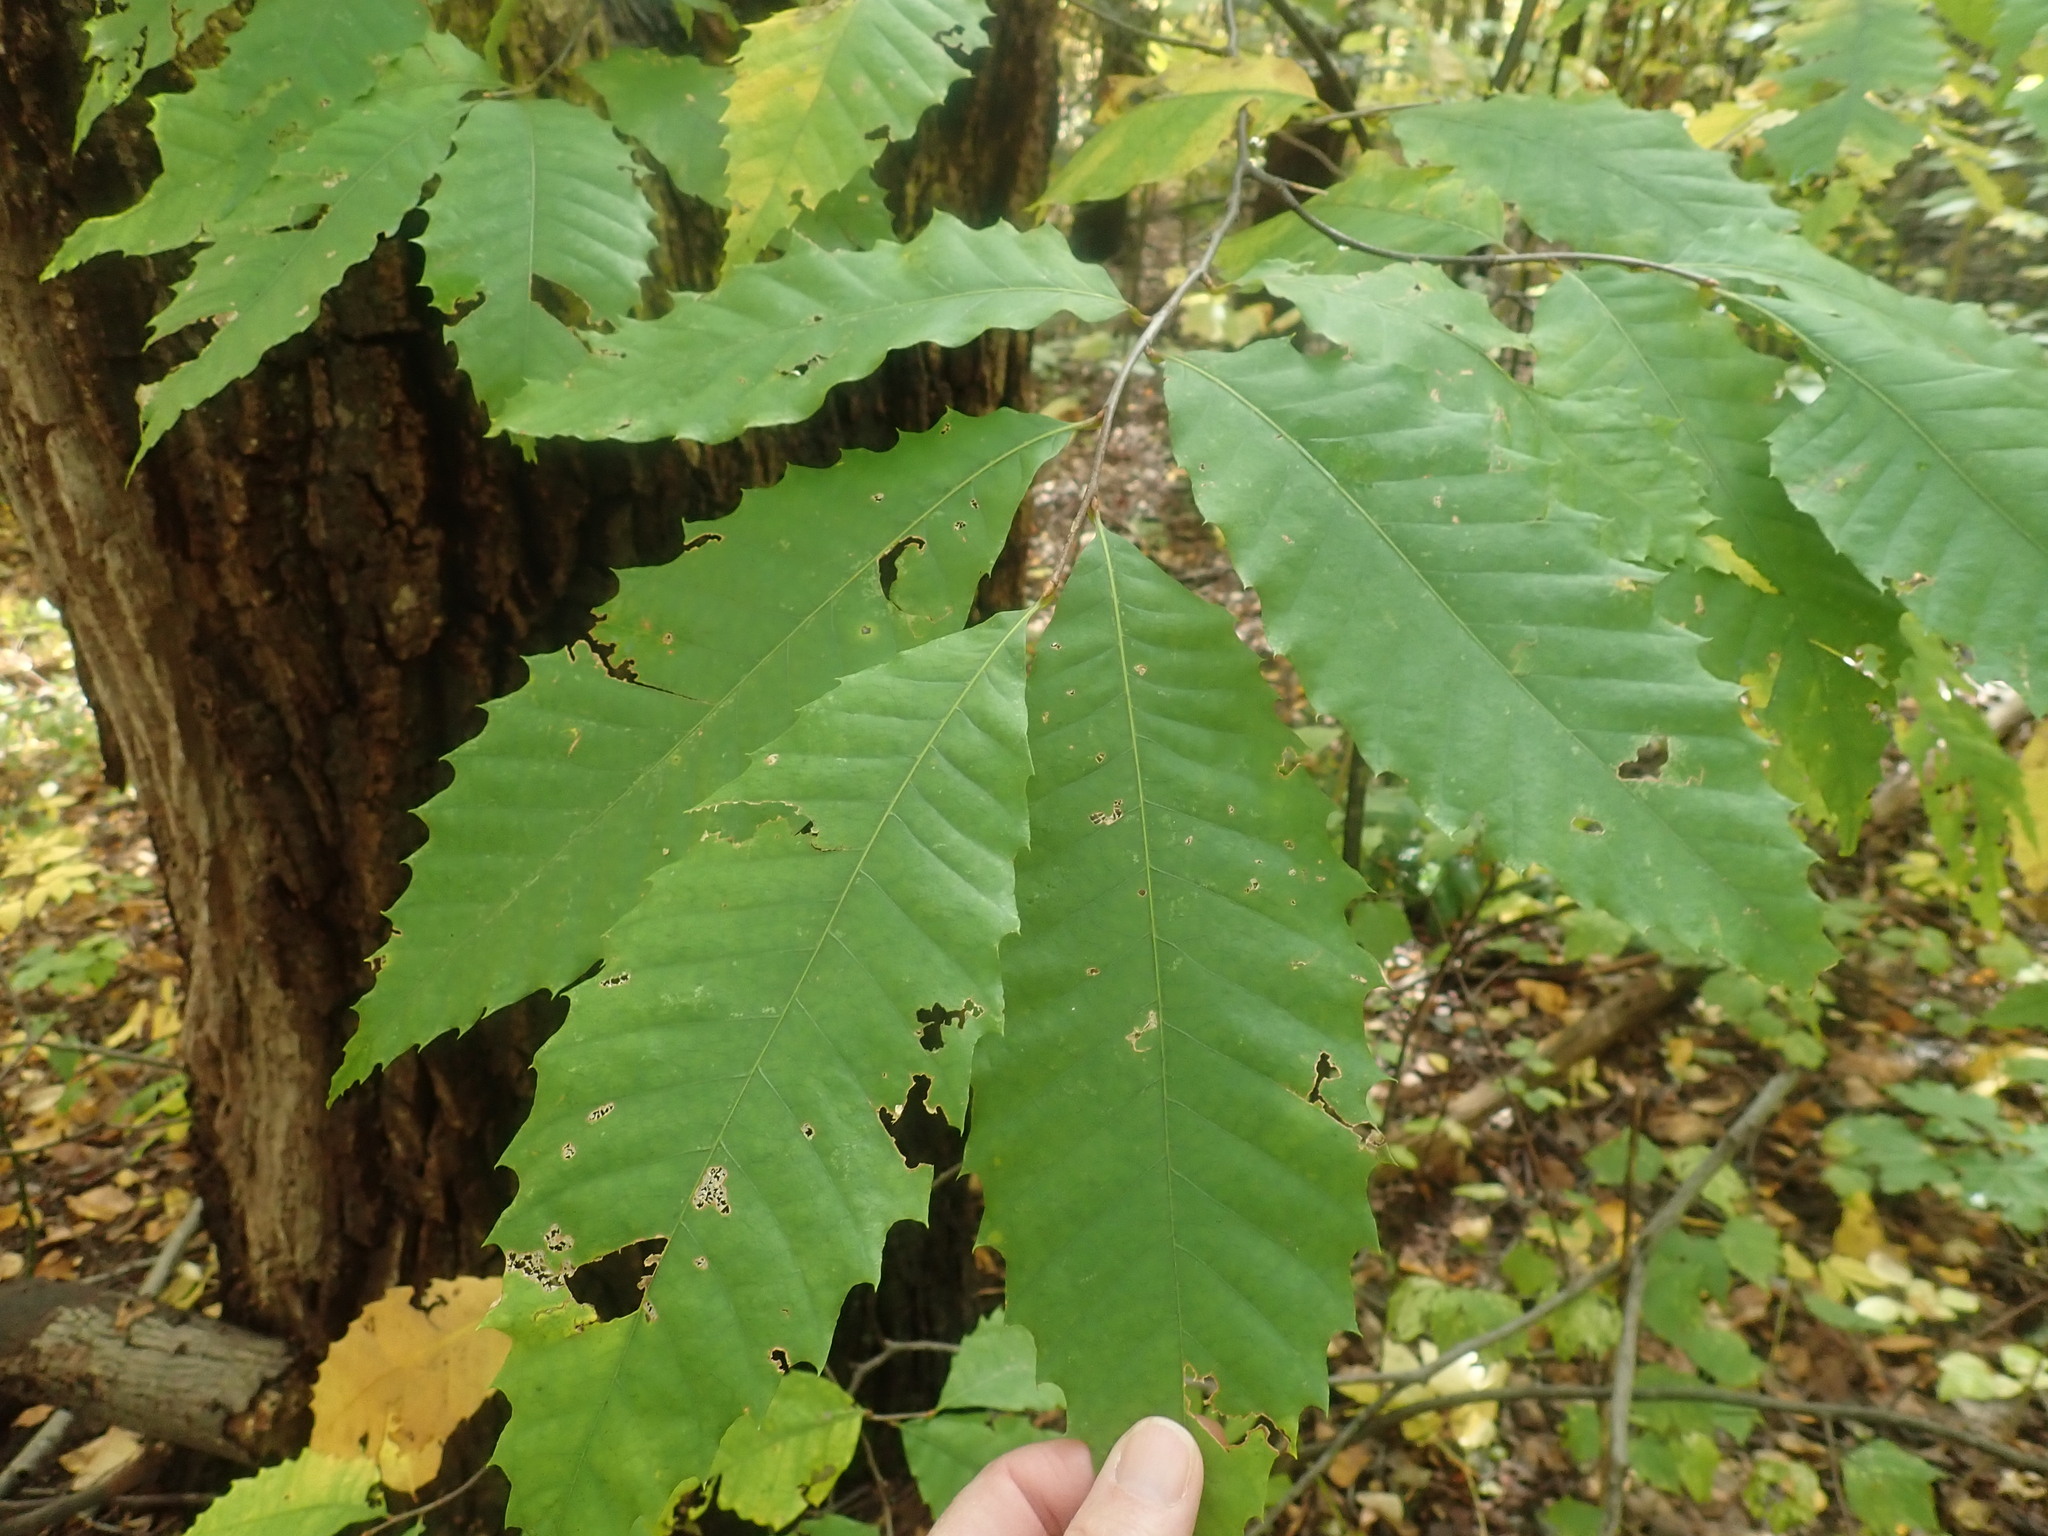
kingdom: Plantae
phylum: Tracheophyta
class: Magnoliopsida
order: Fagales
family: Fagaceae
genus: Castanea
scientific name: Castanea dentata
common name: American chestnut
